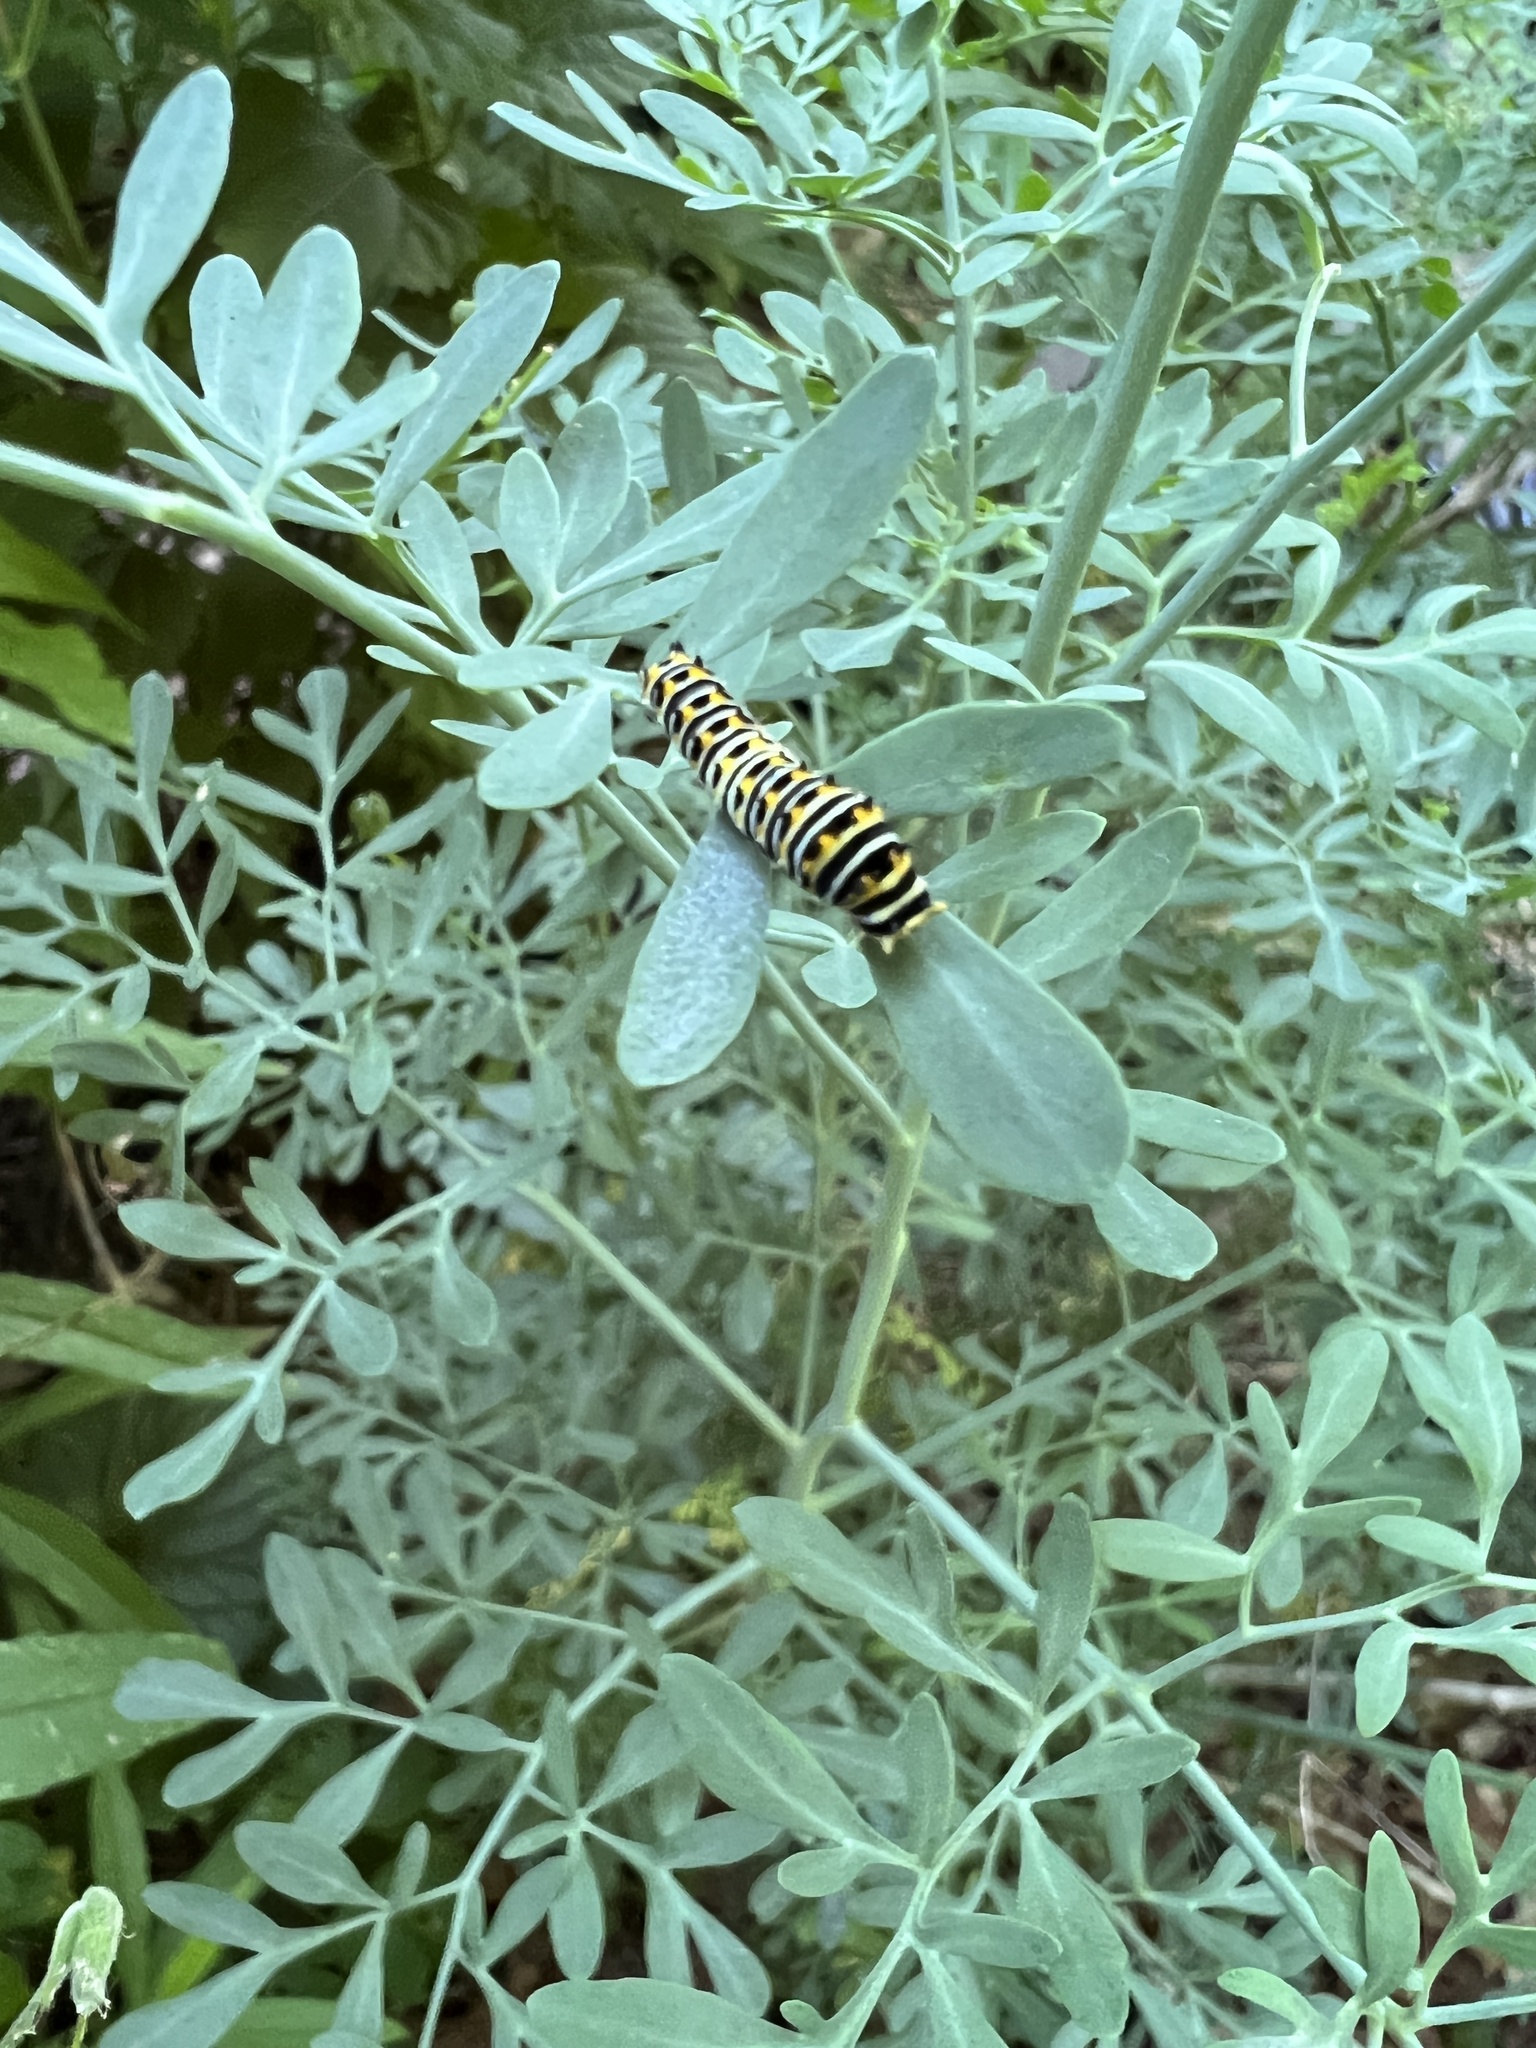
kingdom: Animalia
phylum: Arthropoda
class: Insecta
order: Lepidoptera
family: Papilionidae
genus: Papilio
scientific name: Papilio polyxenes
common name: Black swallowtail
